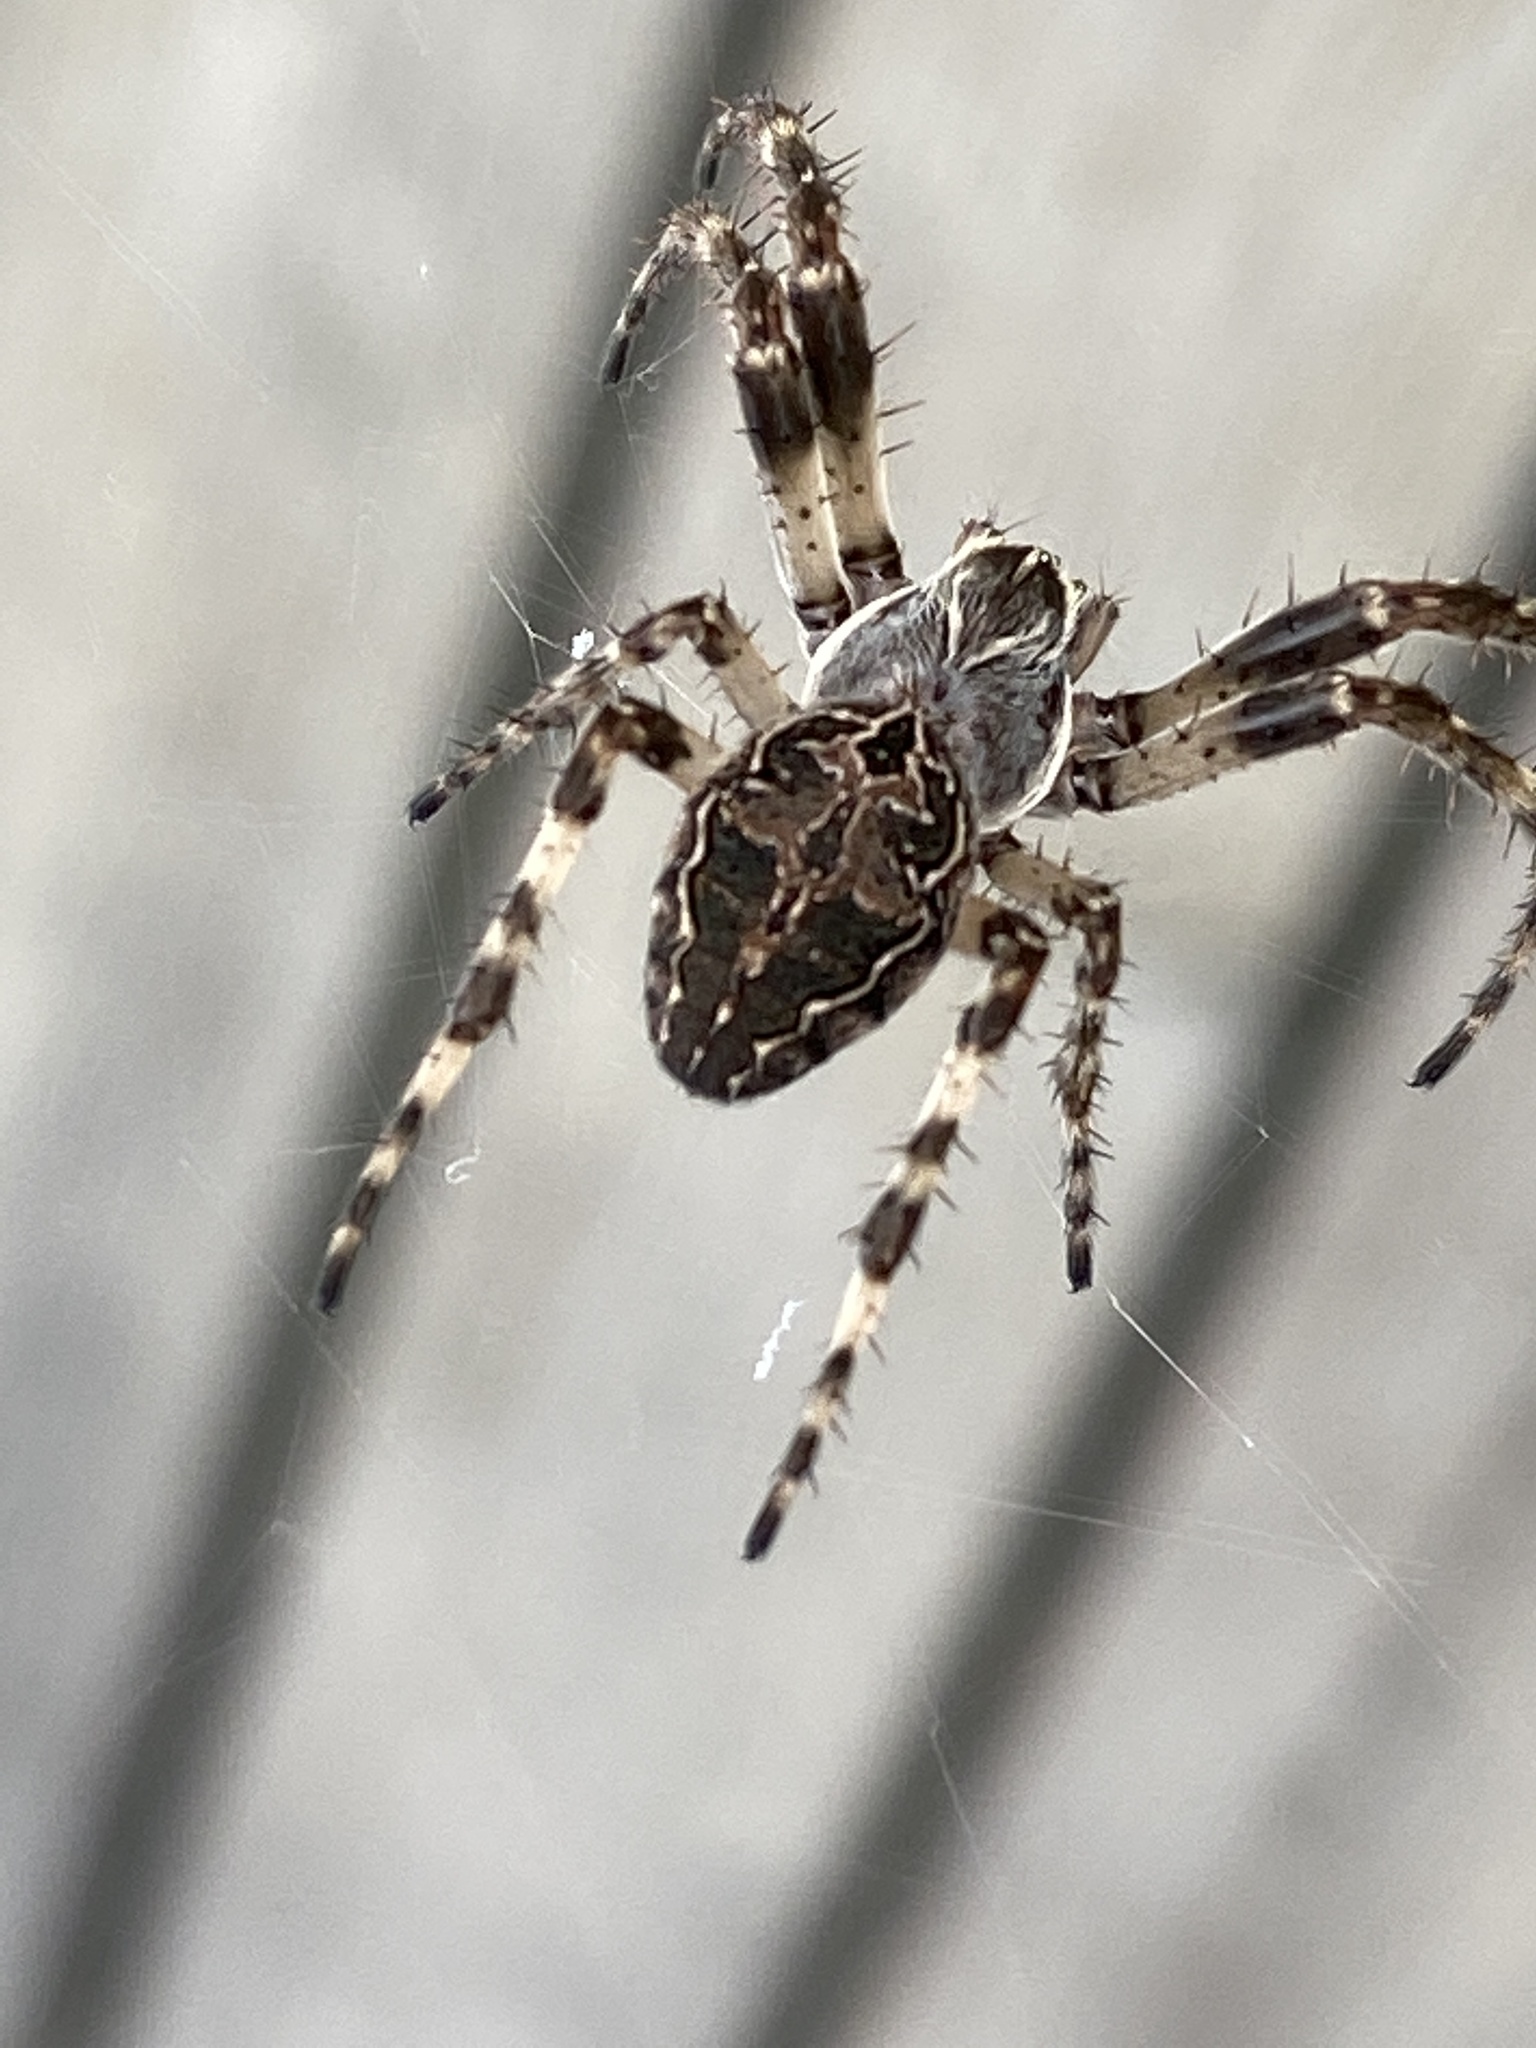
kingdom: Animalia
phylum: Arthropoda
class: Arachnida
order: Araneae
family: Araneidae
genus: Larinioides
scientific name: Larinioides sclopetarius
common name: Bridge orbweaver
